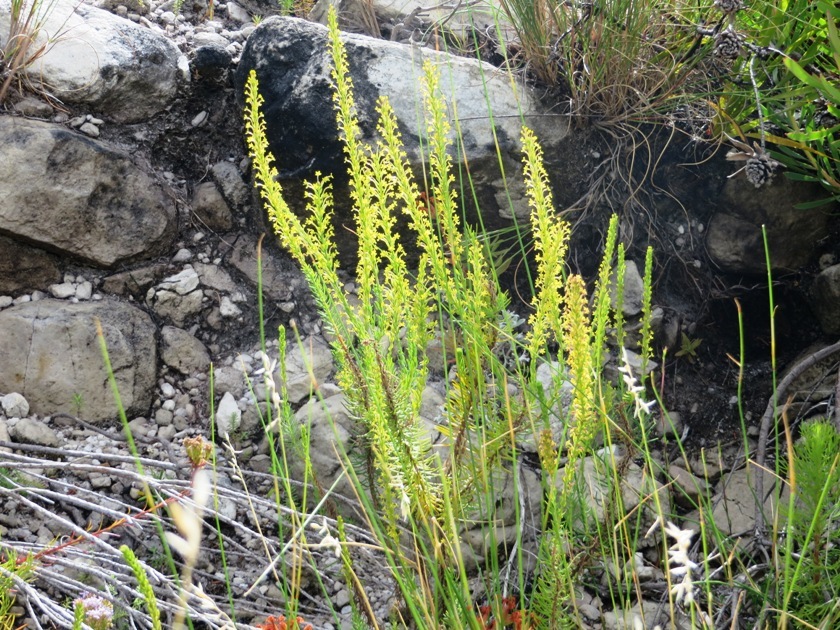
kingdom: Plantae
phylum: Tracheophyta
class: Magnoliopsida
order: Lamiales
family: Scrophulariaceae
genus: Microdon
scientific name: Microdon dubius
